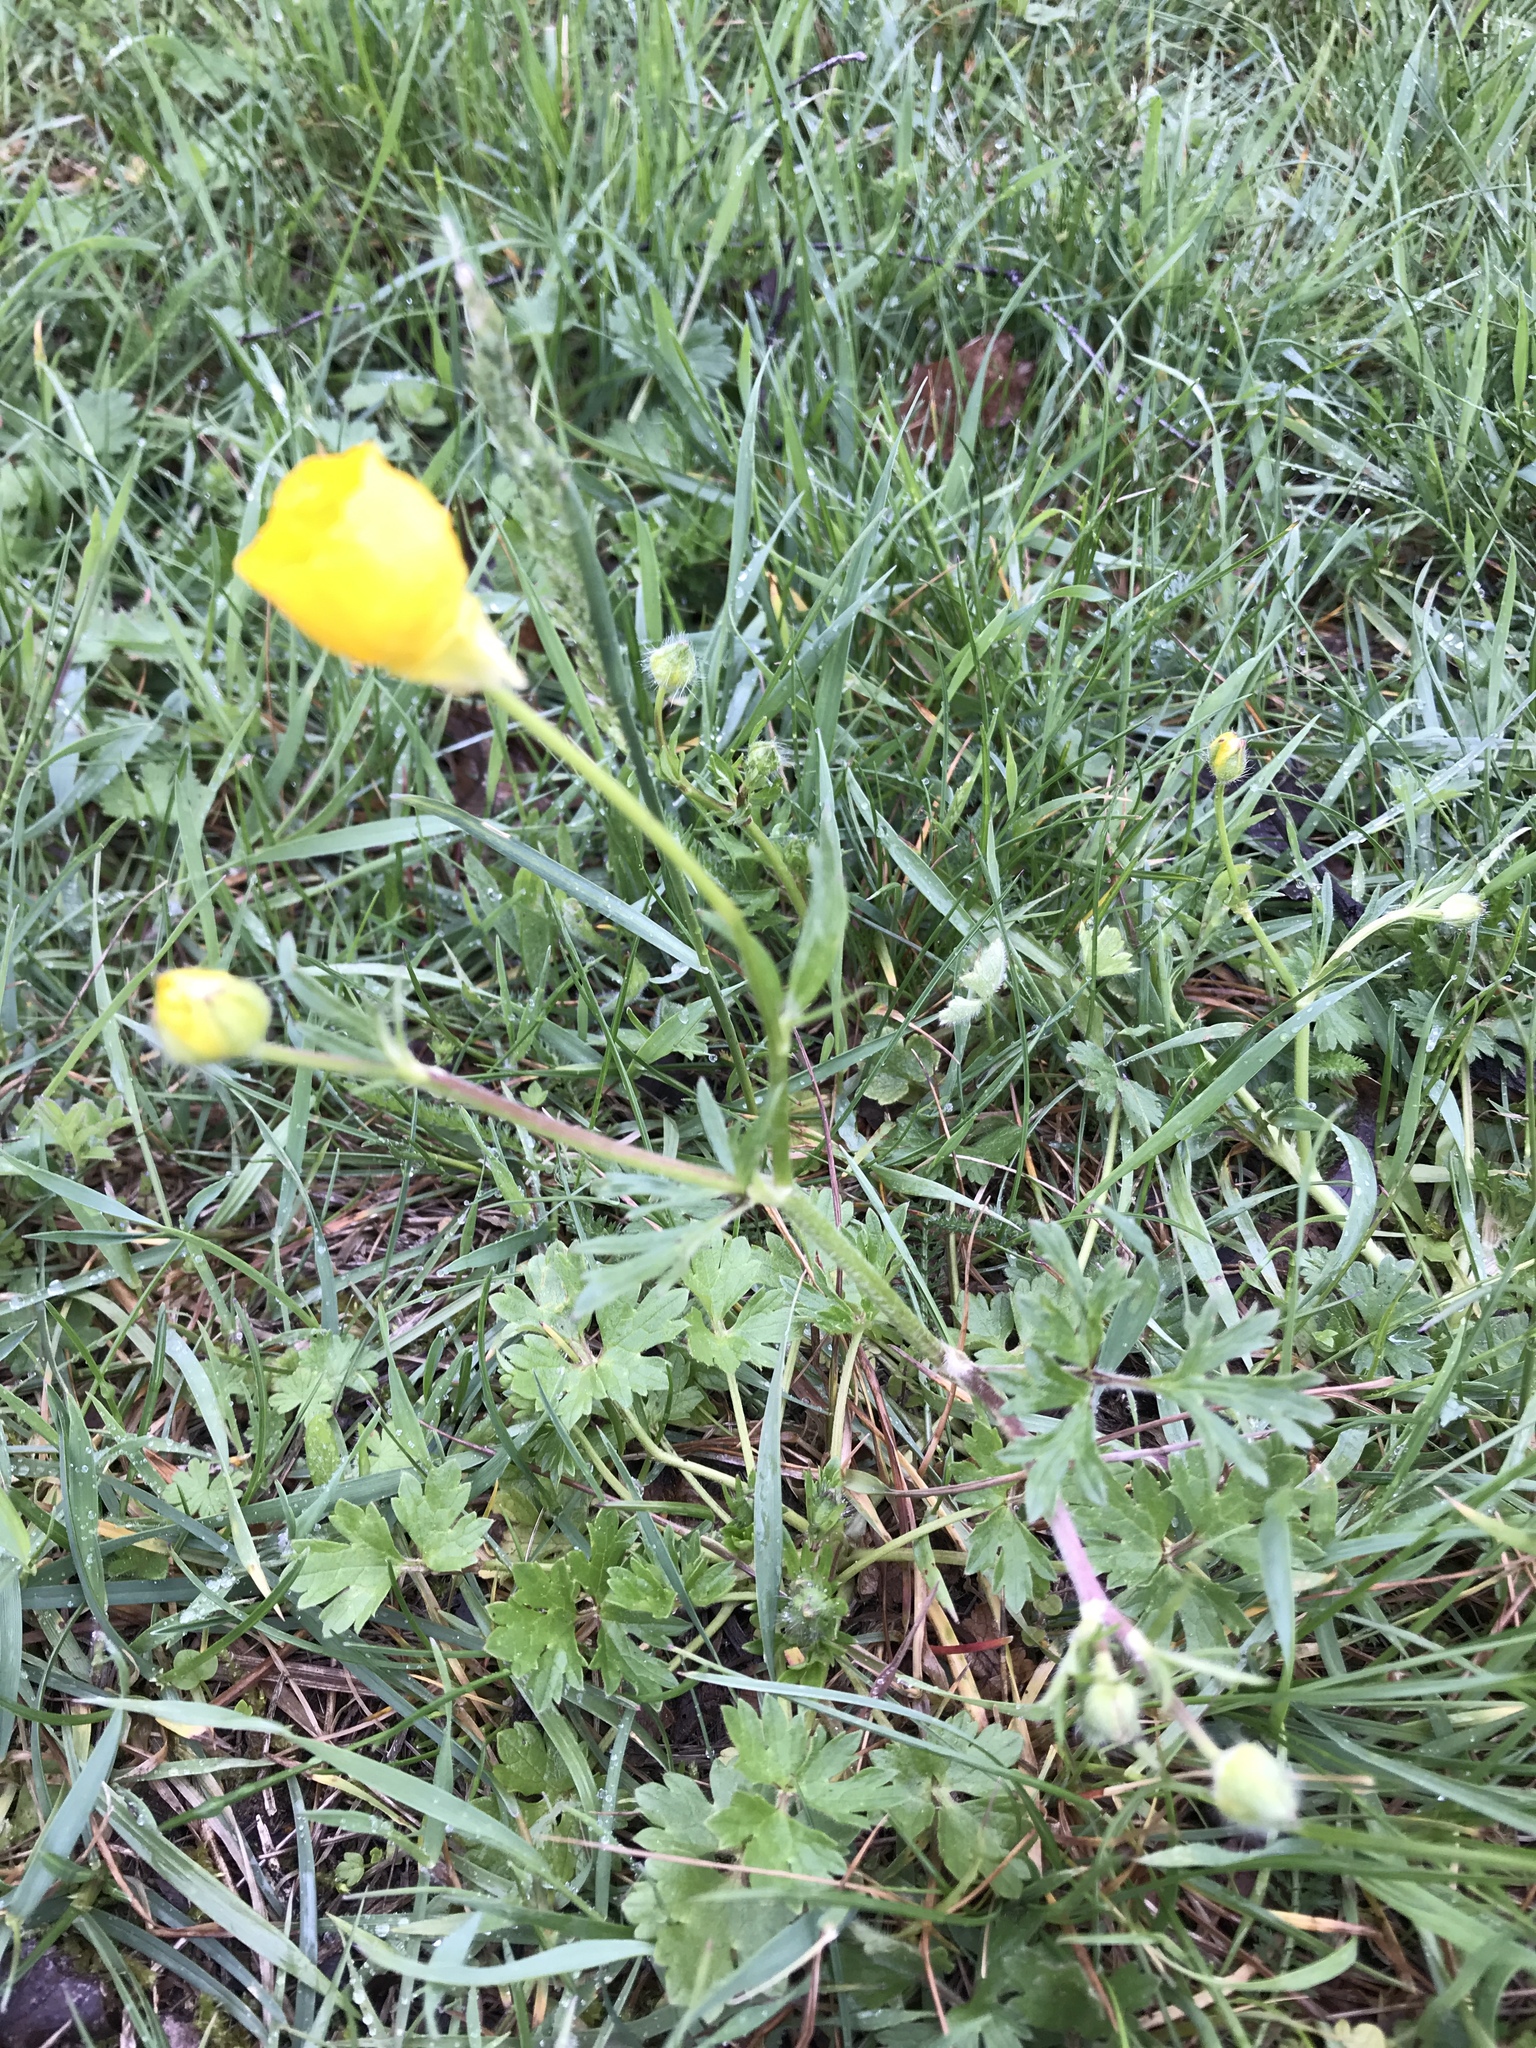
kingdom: Plantae
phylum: Tracheophyta
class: Magnoliopsida
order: Ranunculales
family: Ranunculaceae
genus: Ranunculus
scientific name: Ranunculus bulbosus
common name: Bulbous buttercup
